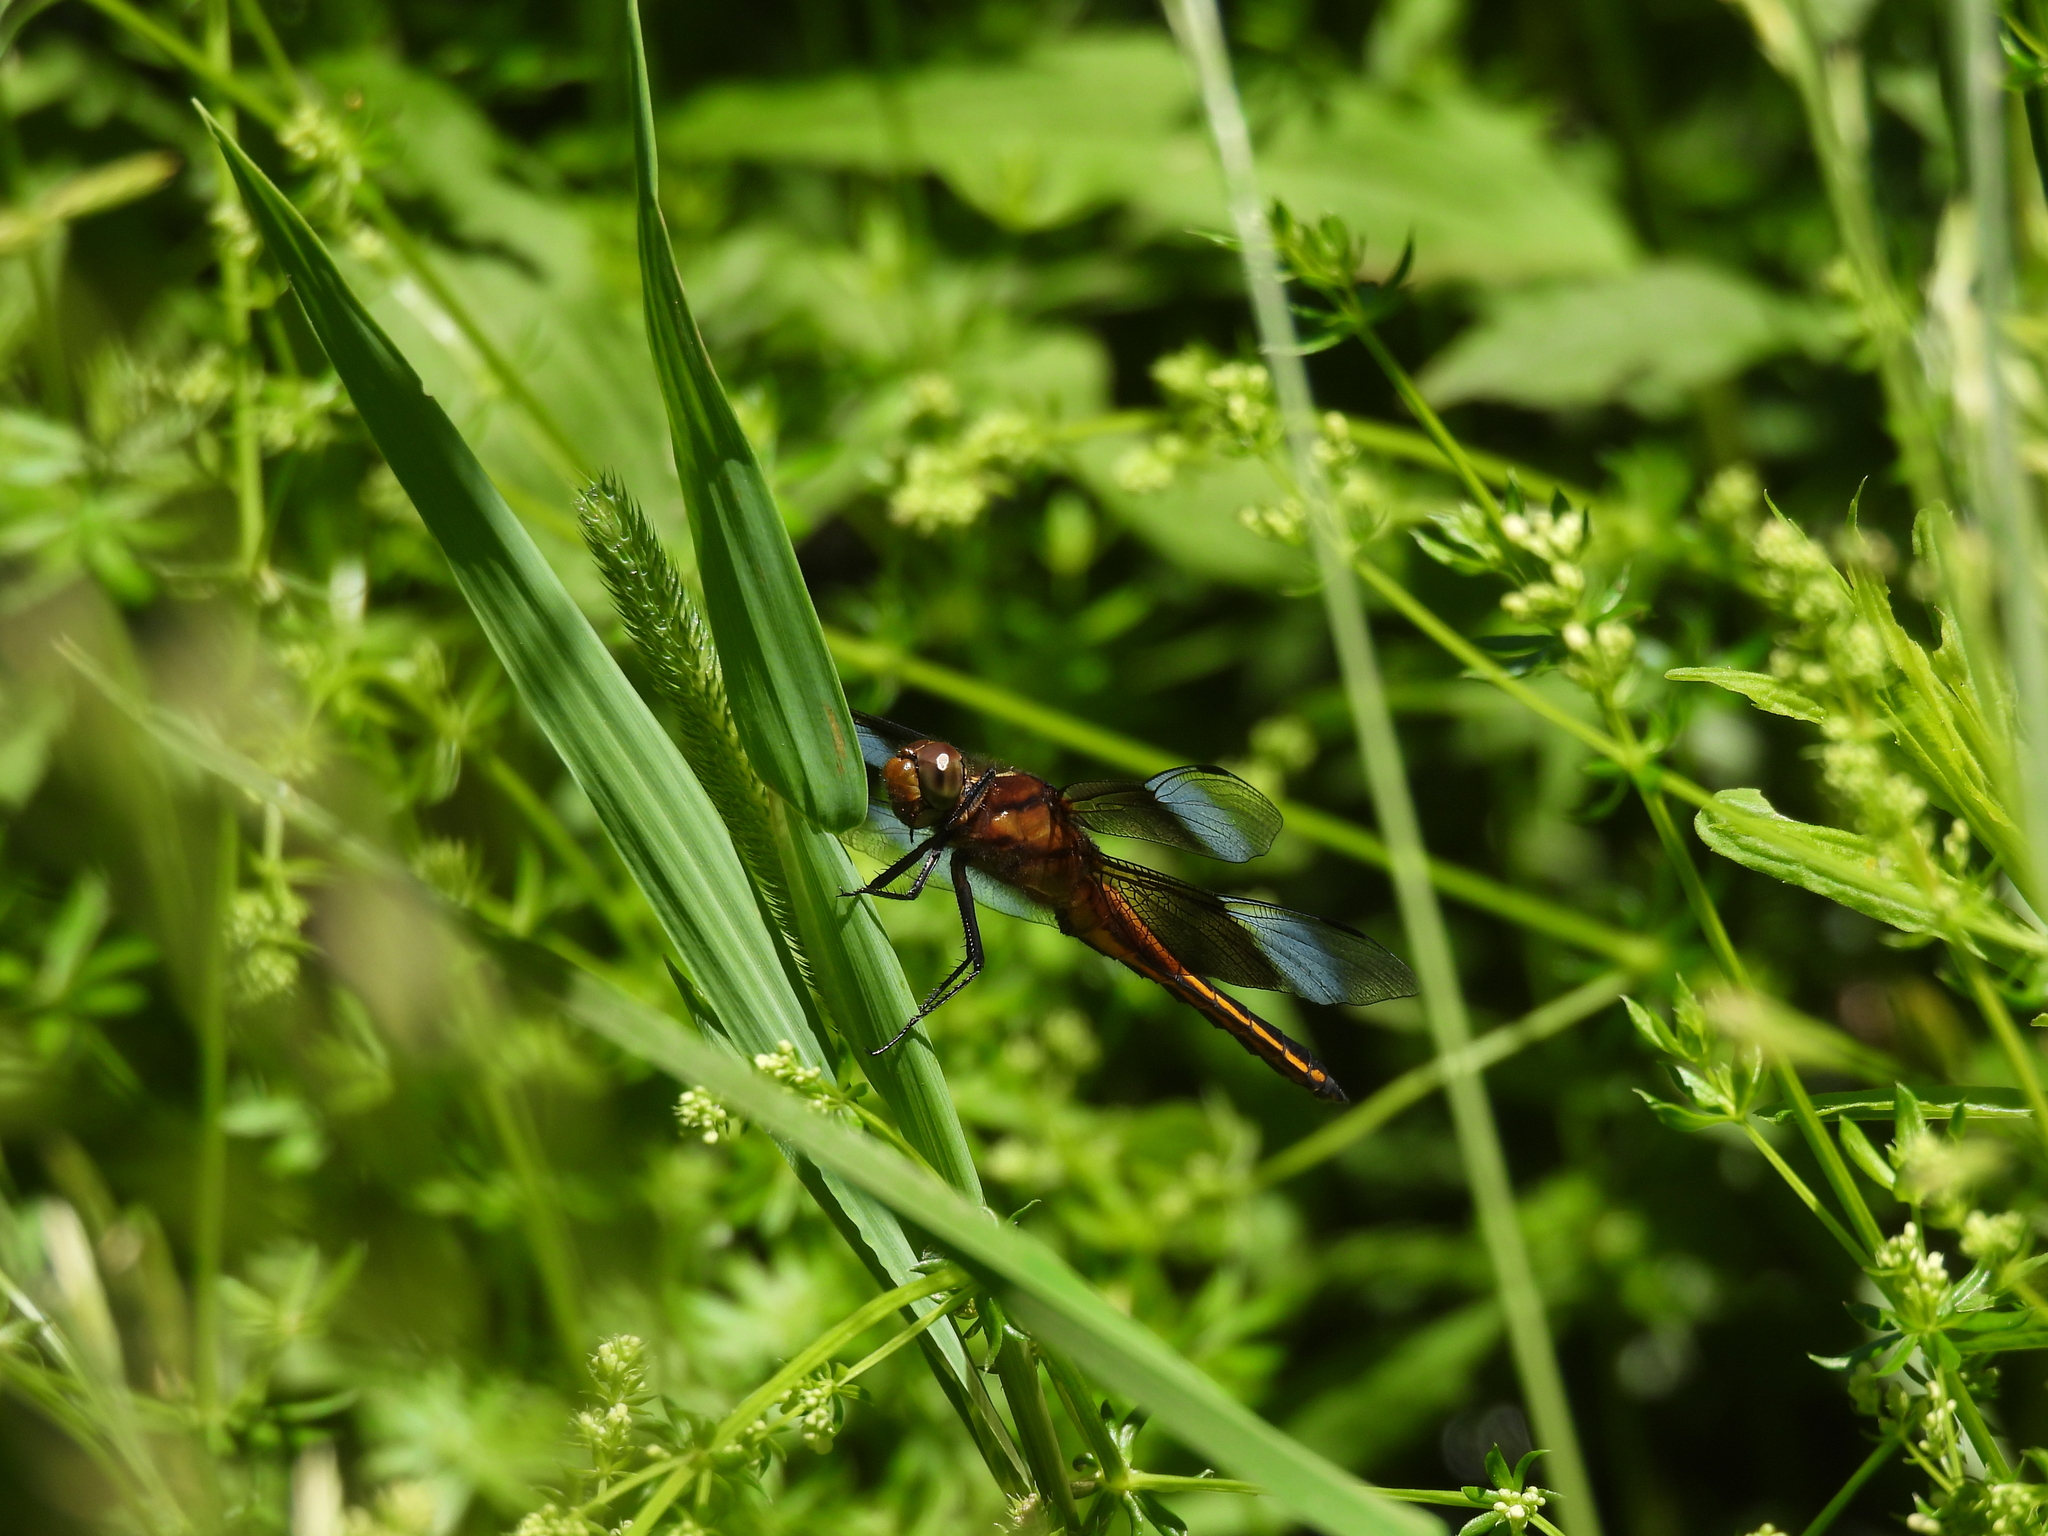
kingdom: Animalia
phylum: Arthropoda
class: Insecta
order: Odonata
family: Libellulidae
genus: Libellula
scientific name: Libellula luctuosa
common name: Widow skimmer
